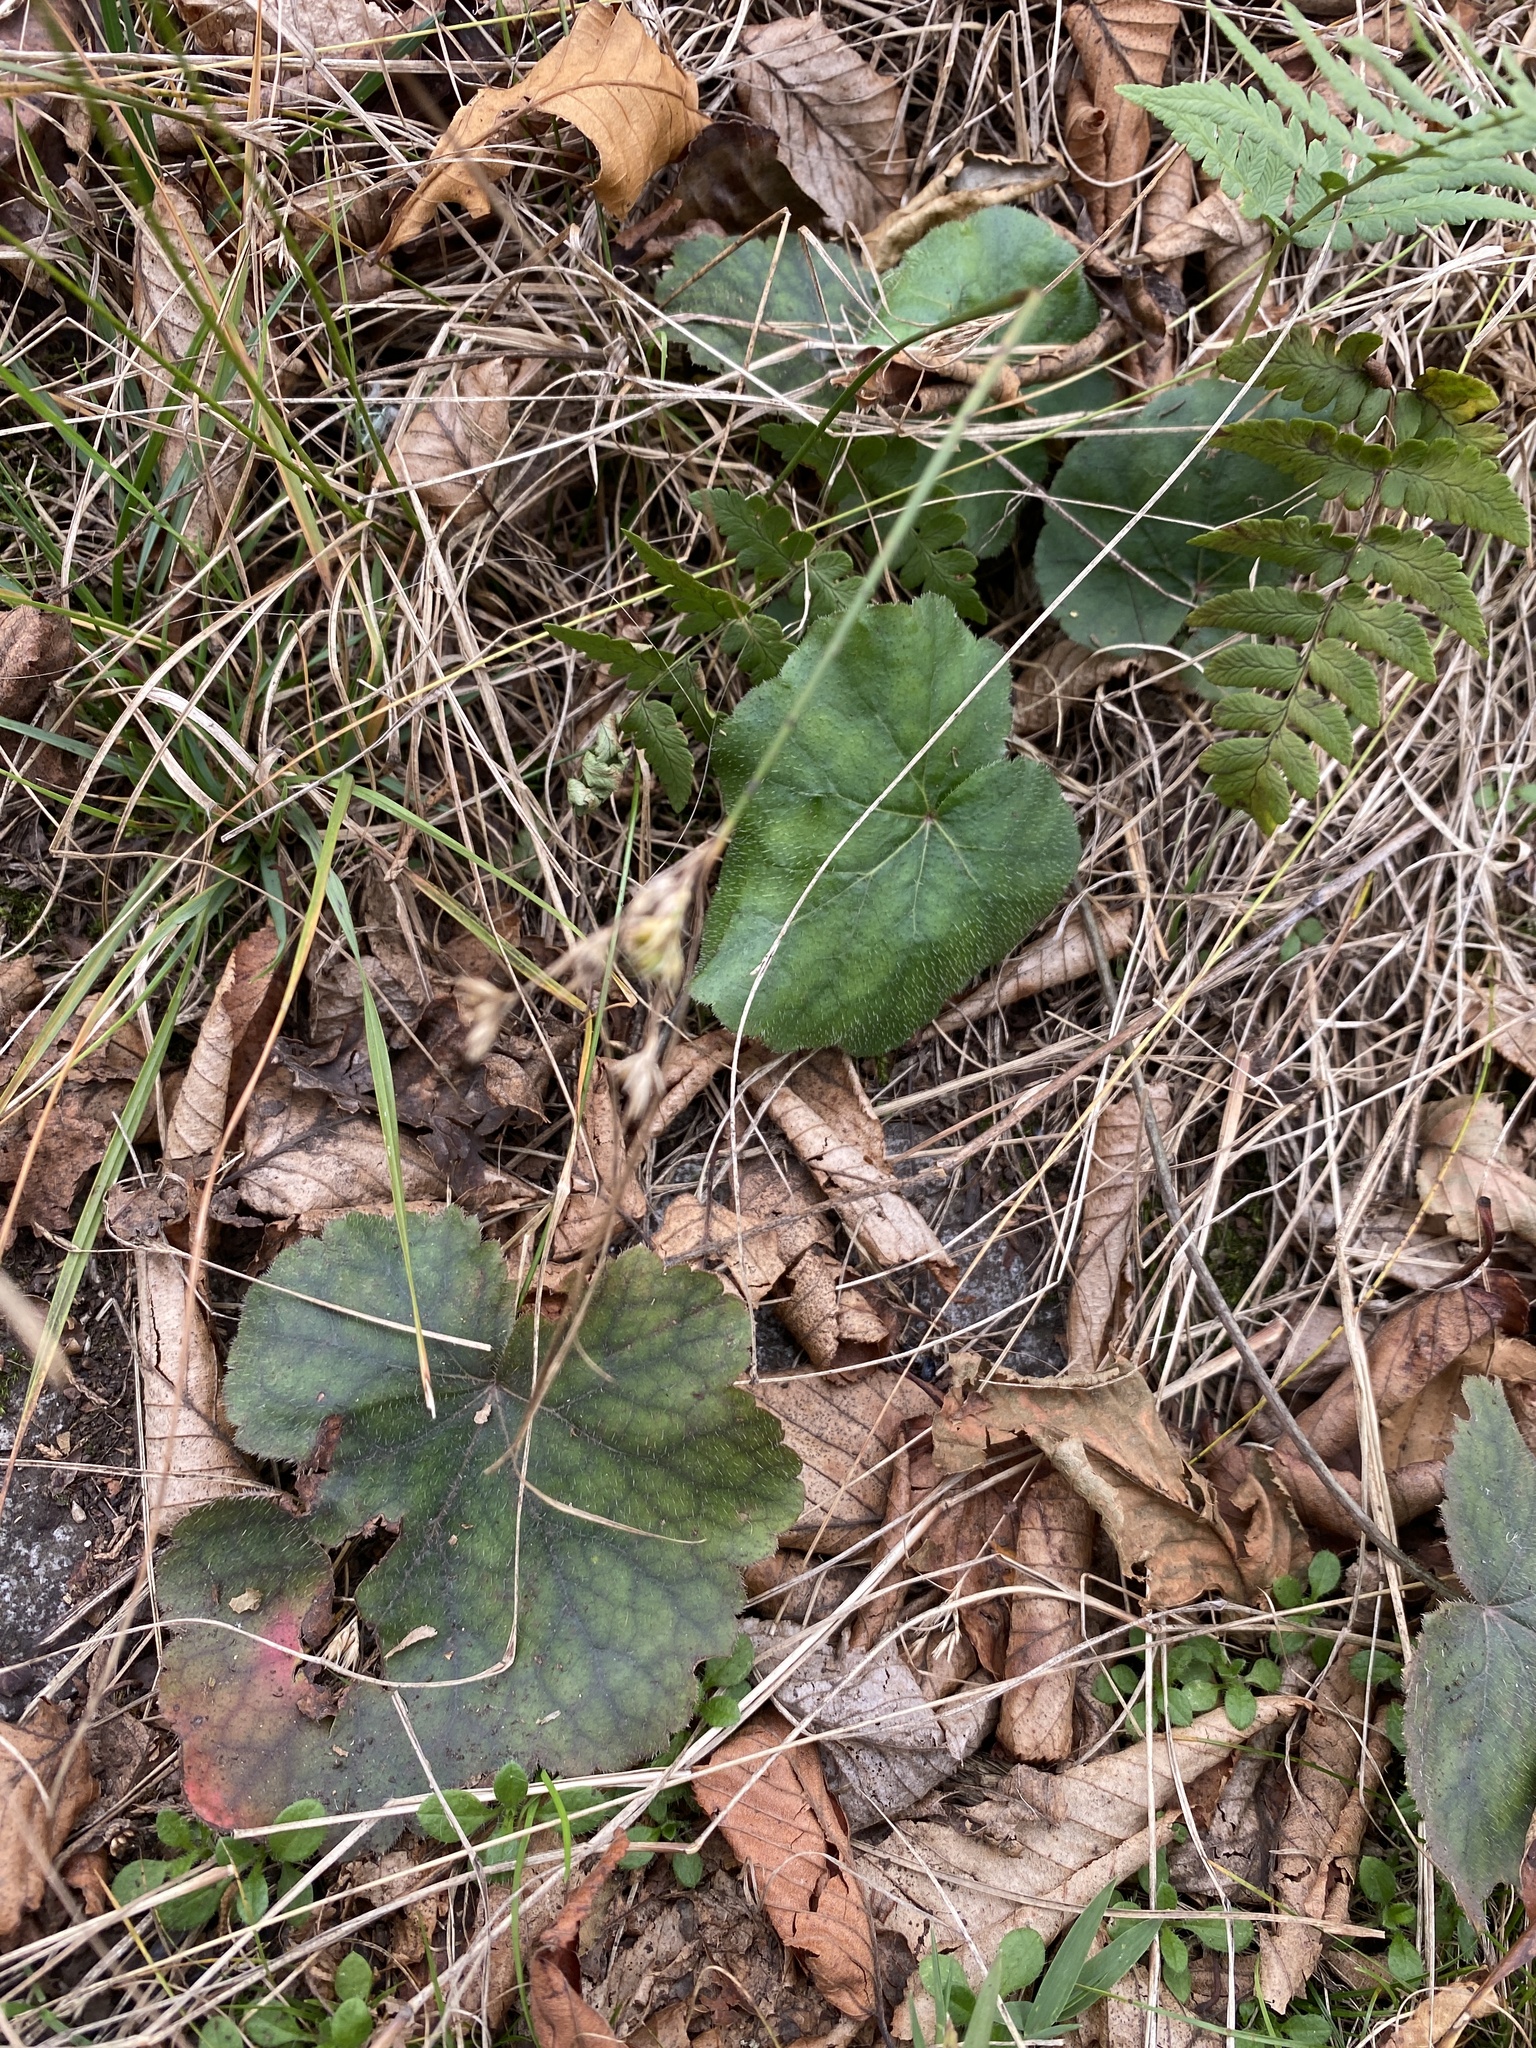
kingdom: Plantae
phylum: Tracheophyta
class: Magnoliopsida
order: Saxifragales
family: Saxifragaceae
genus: Heuchera
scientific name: Heuchera americana
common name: Alumroot
